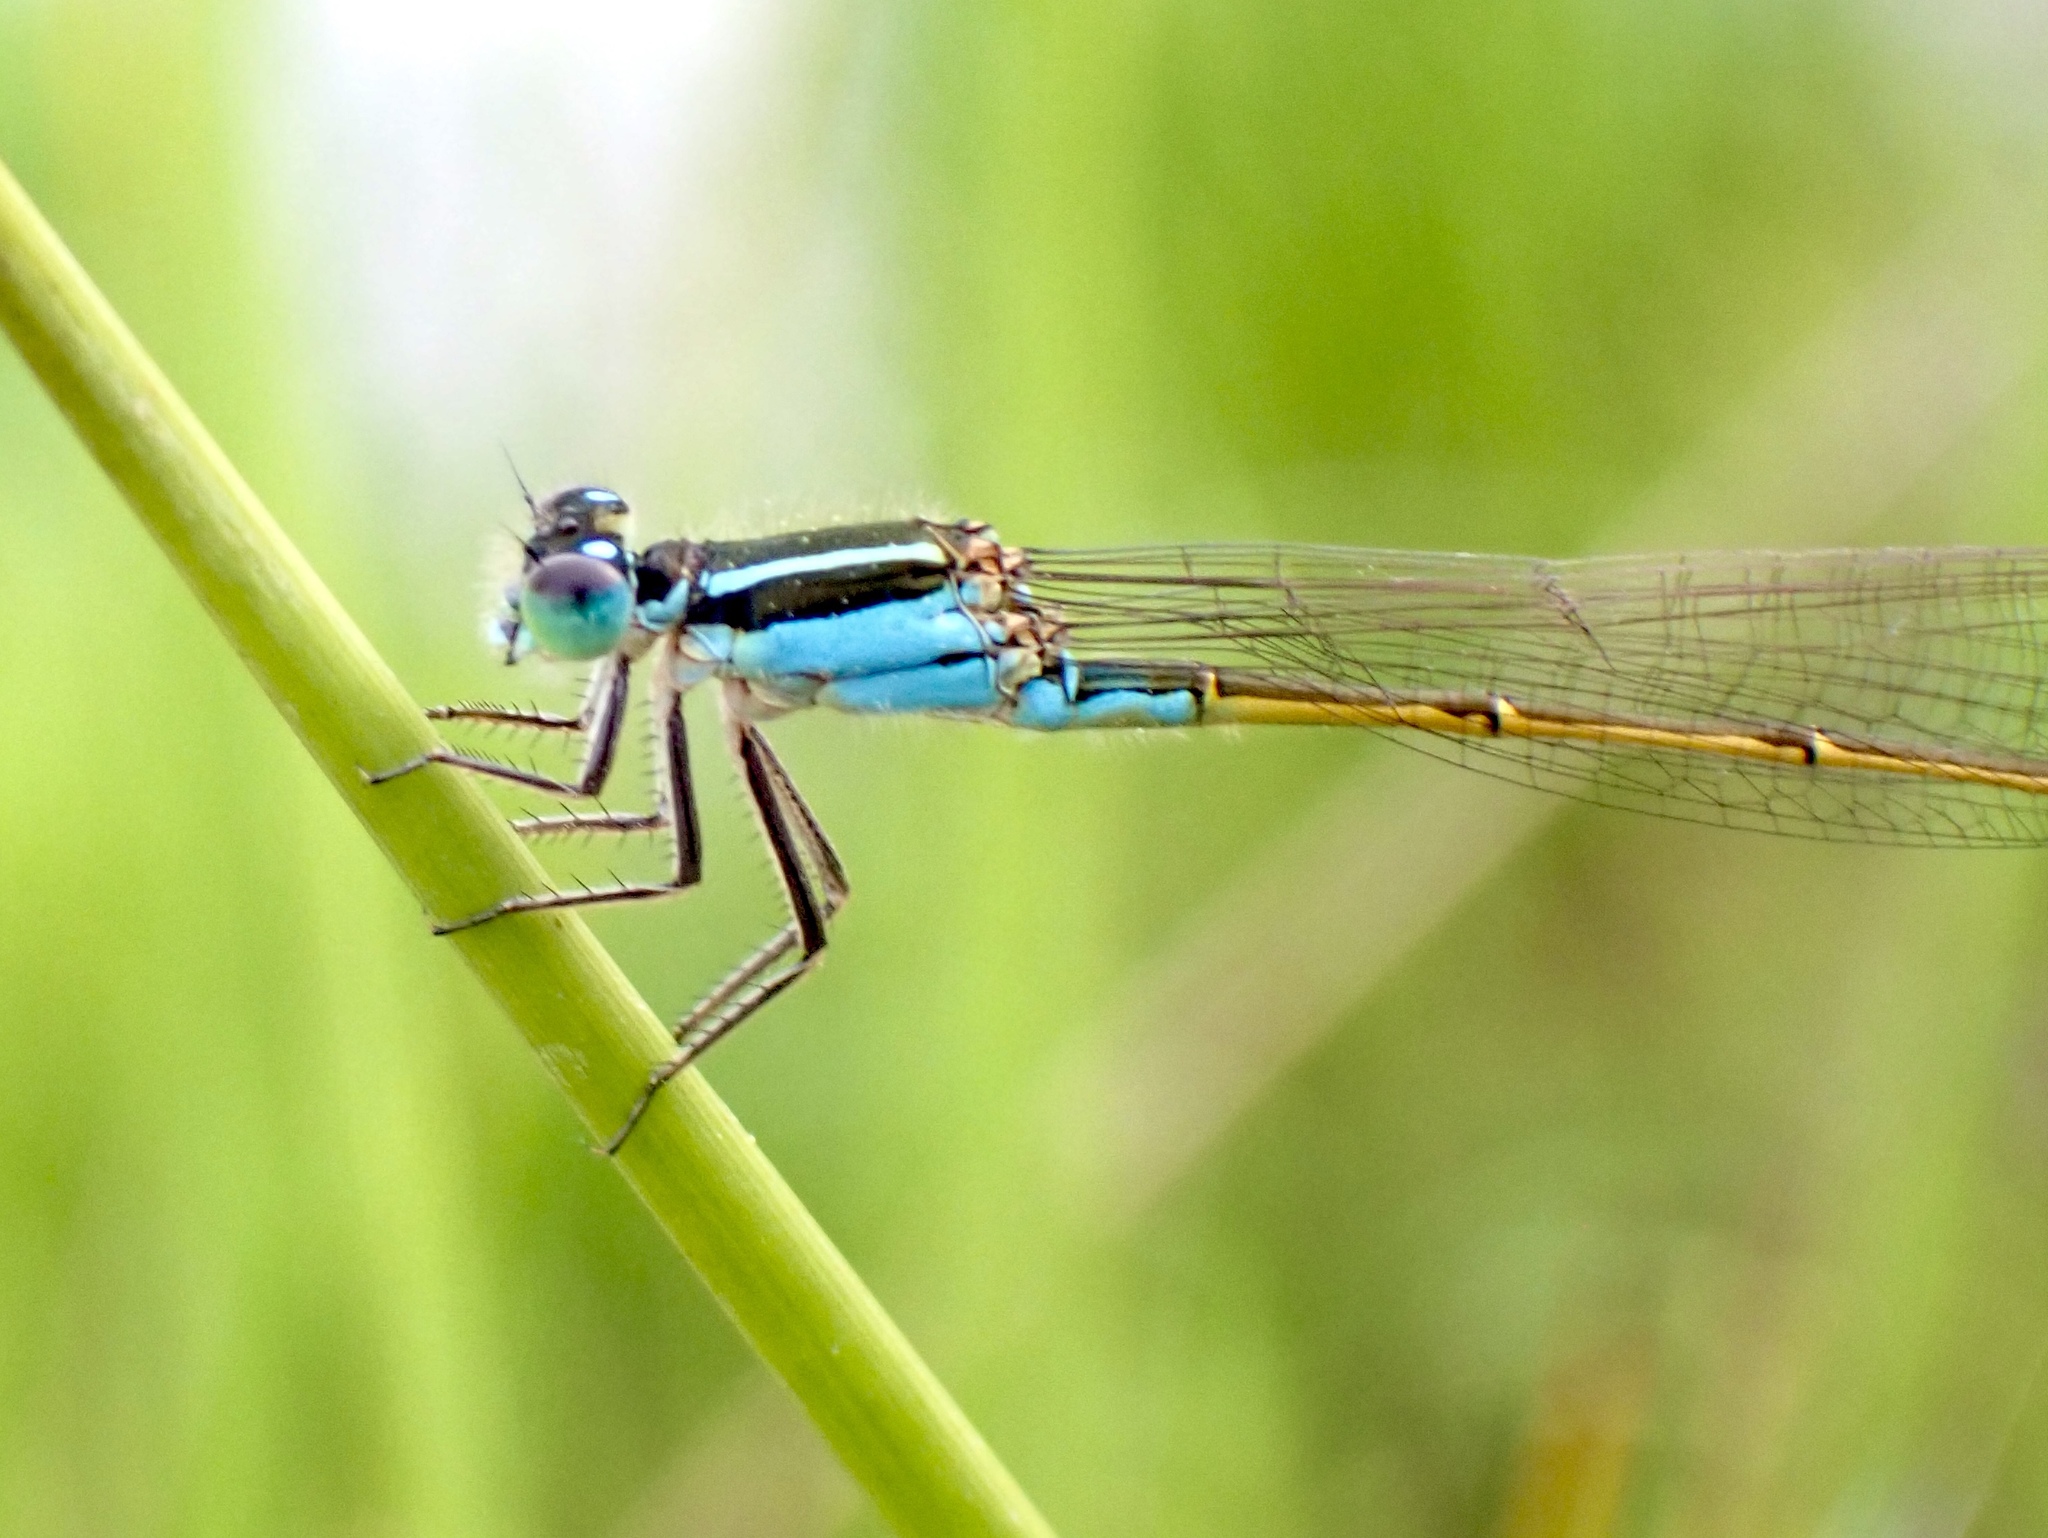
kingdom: Animalia
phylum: Arthropoda
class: Insecta
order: Odonata
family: Coenagrionidae
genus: Ischnura
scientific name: Ischnura ramburii
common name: Rambur's forktail
